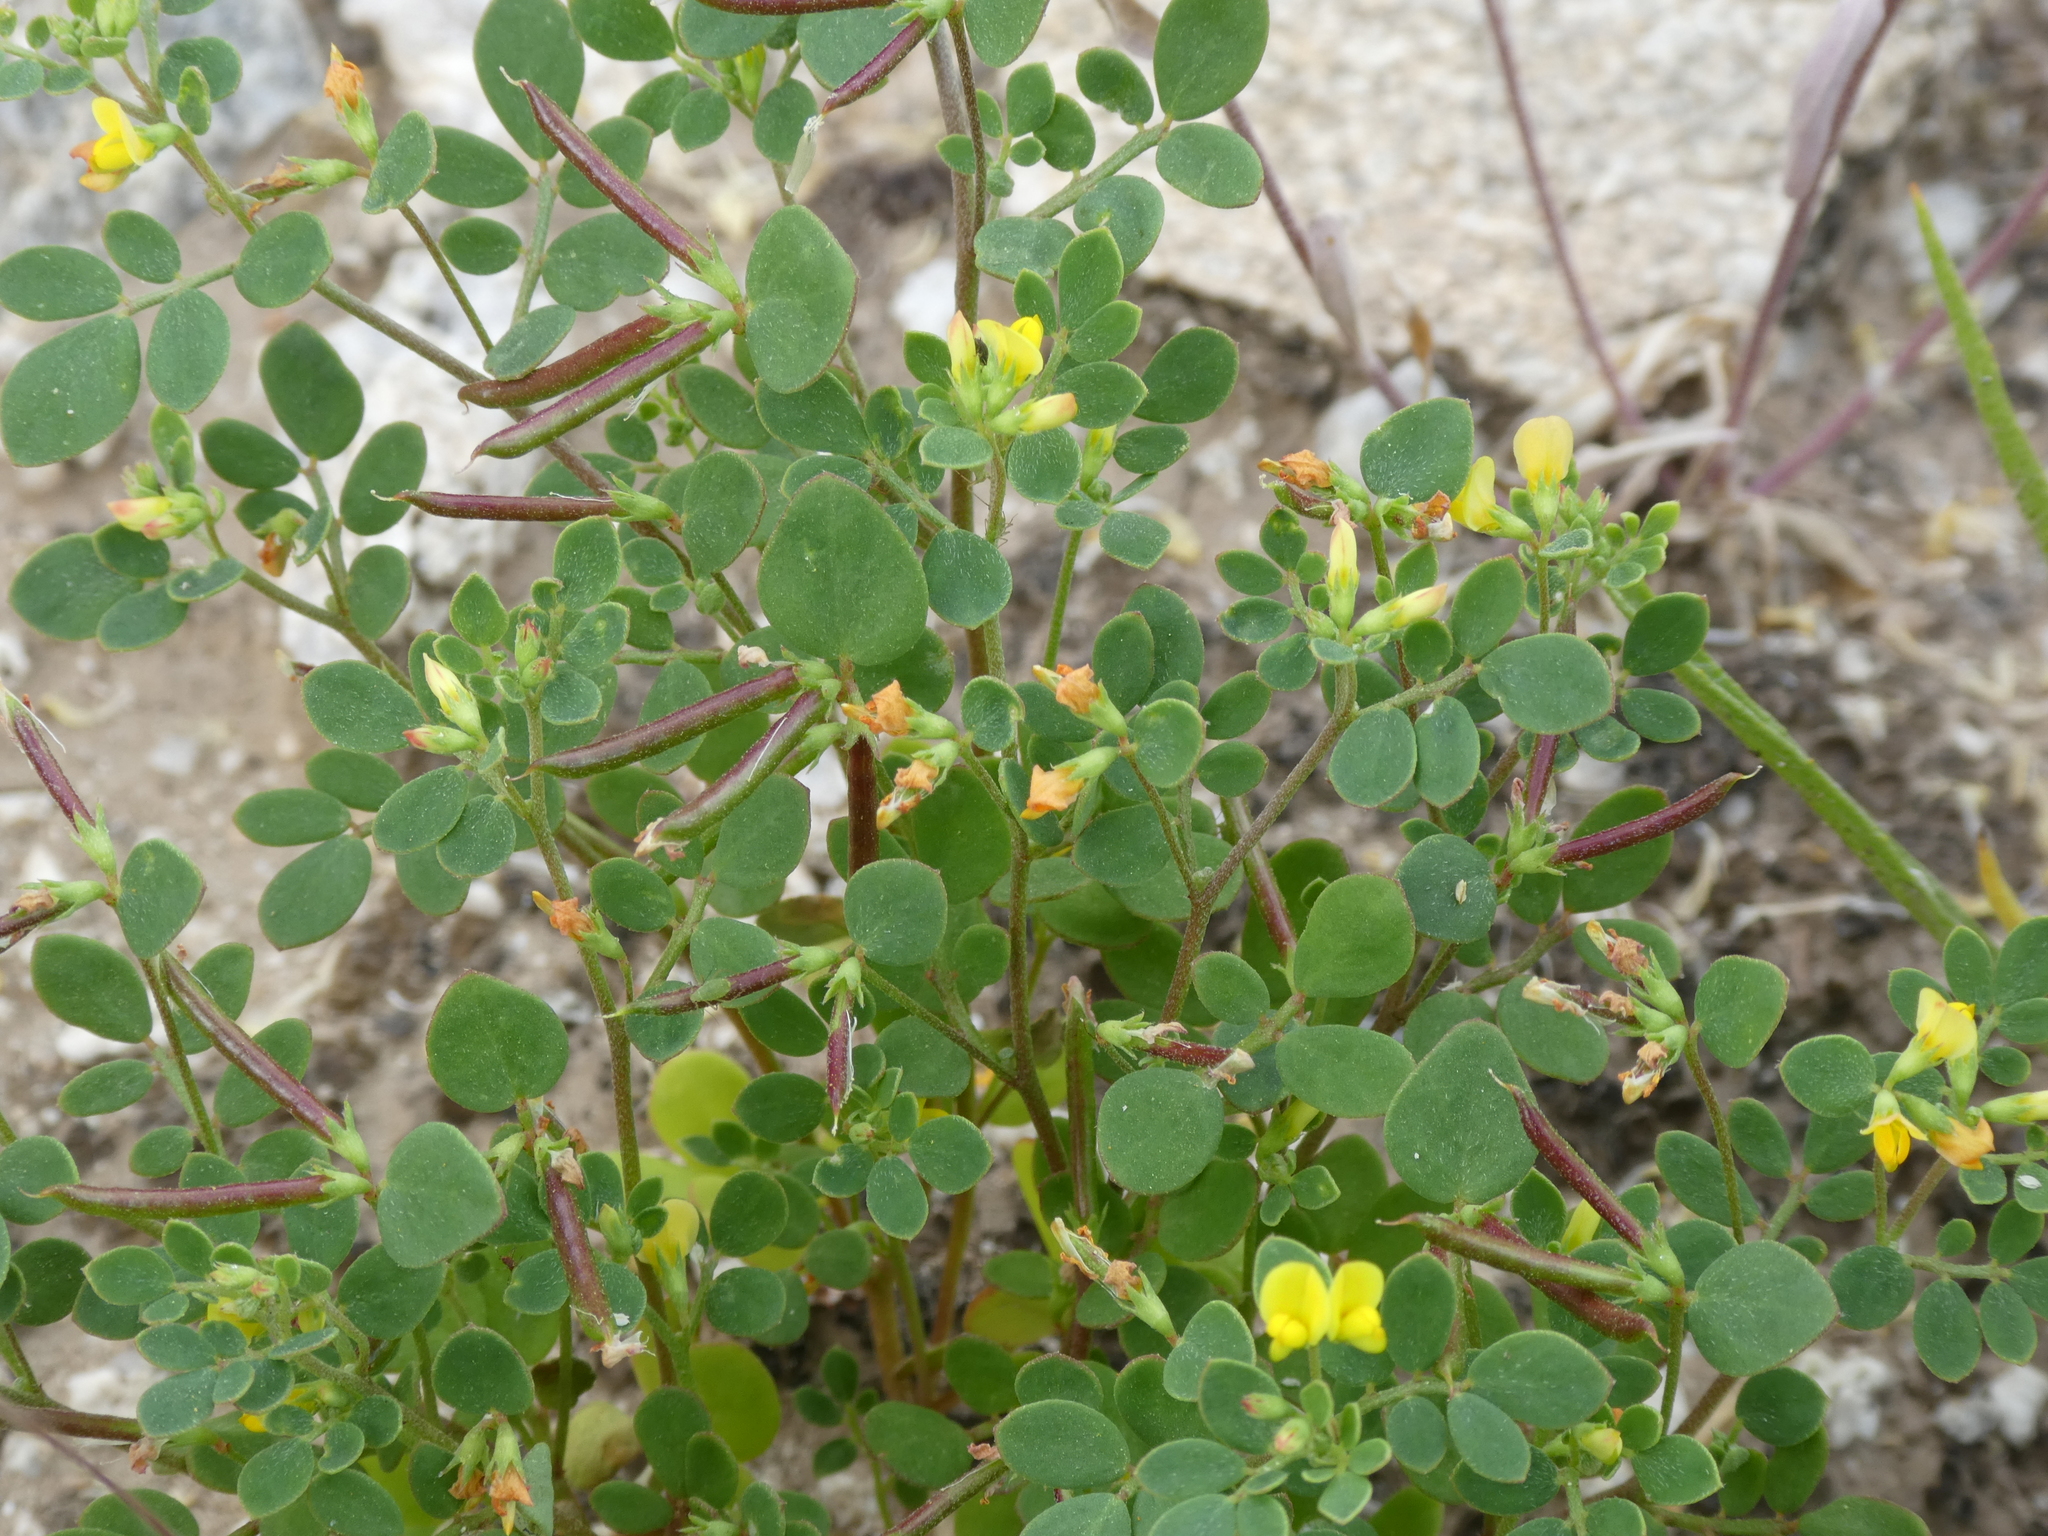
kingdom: Plantae
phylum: Tracheophyta
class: Magnoliopsida
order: Fabales
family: Fabaceae
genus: Acmispon
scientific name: Acmispon maritimus
